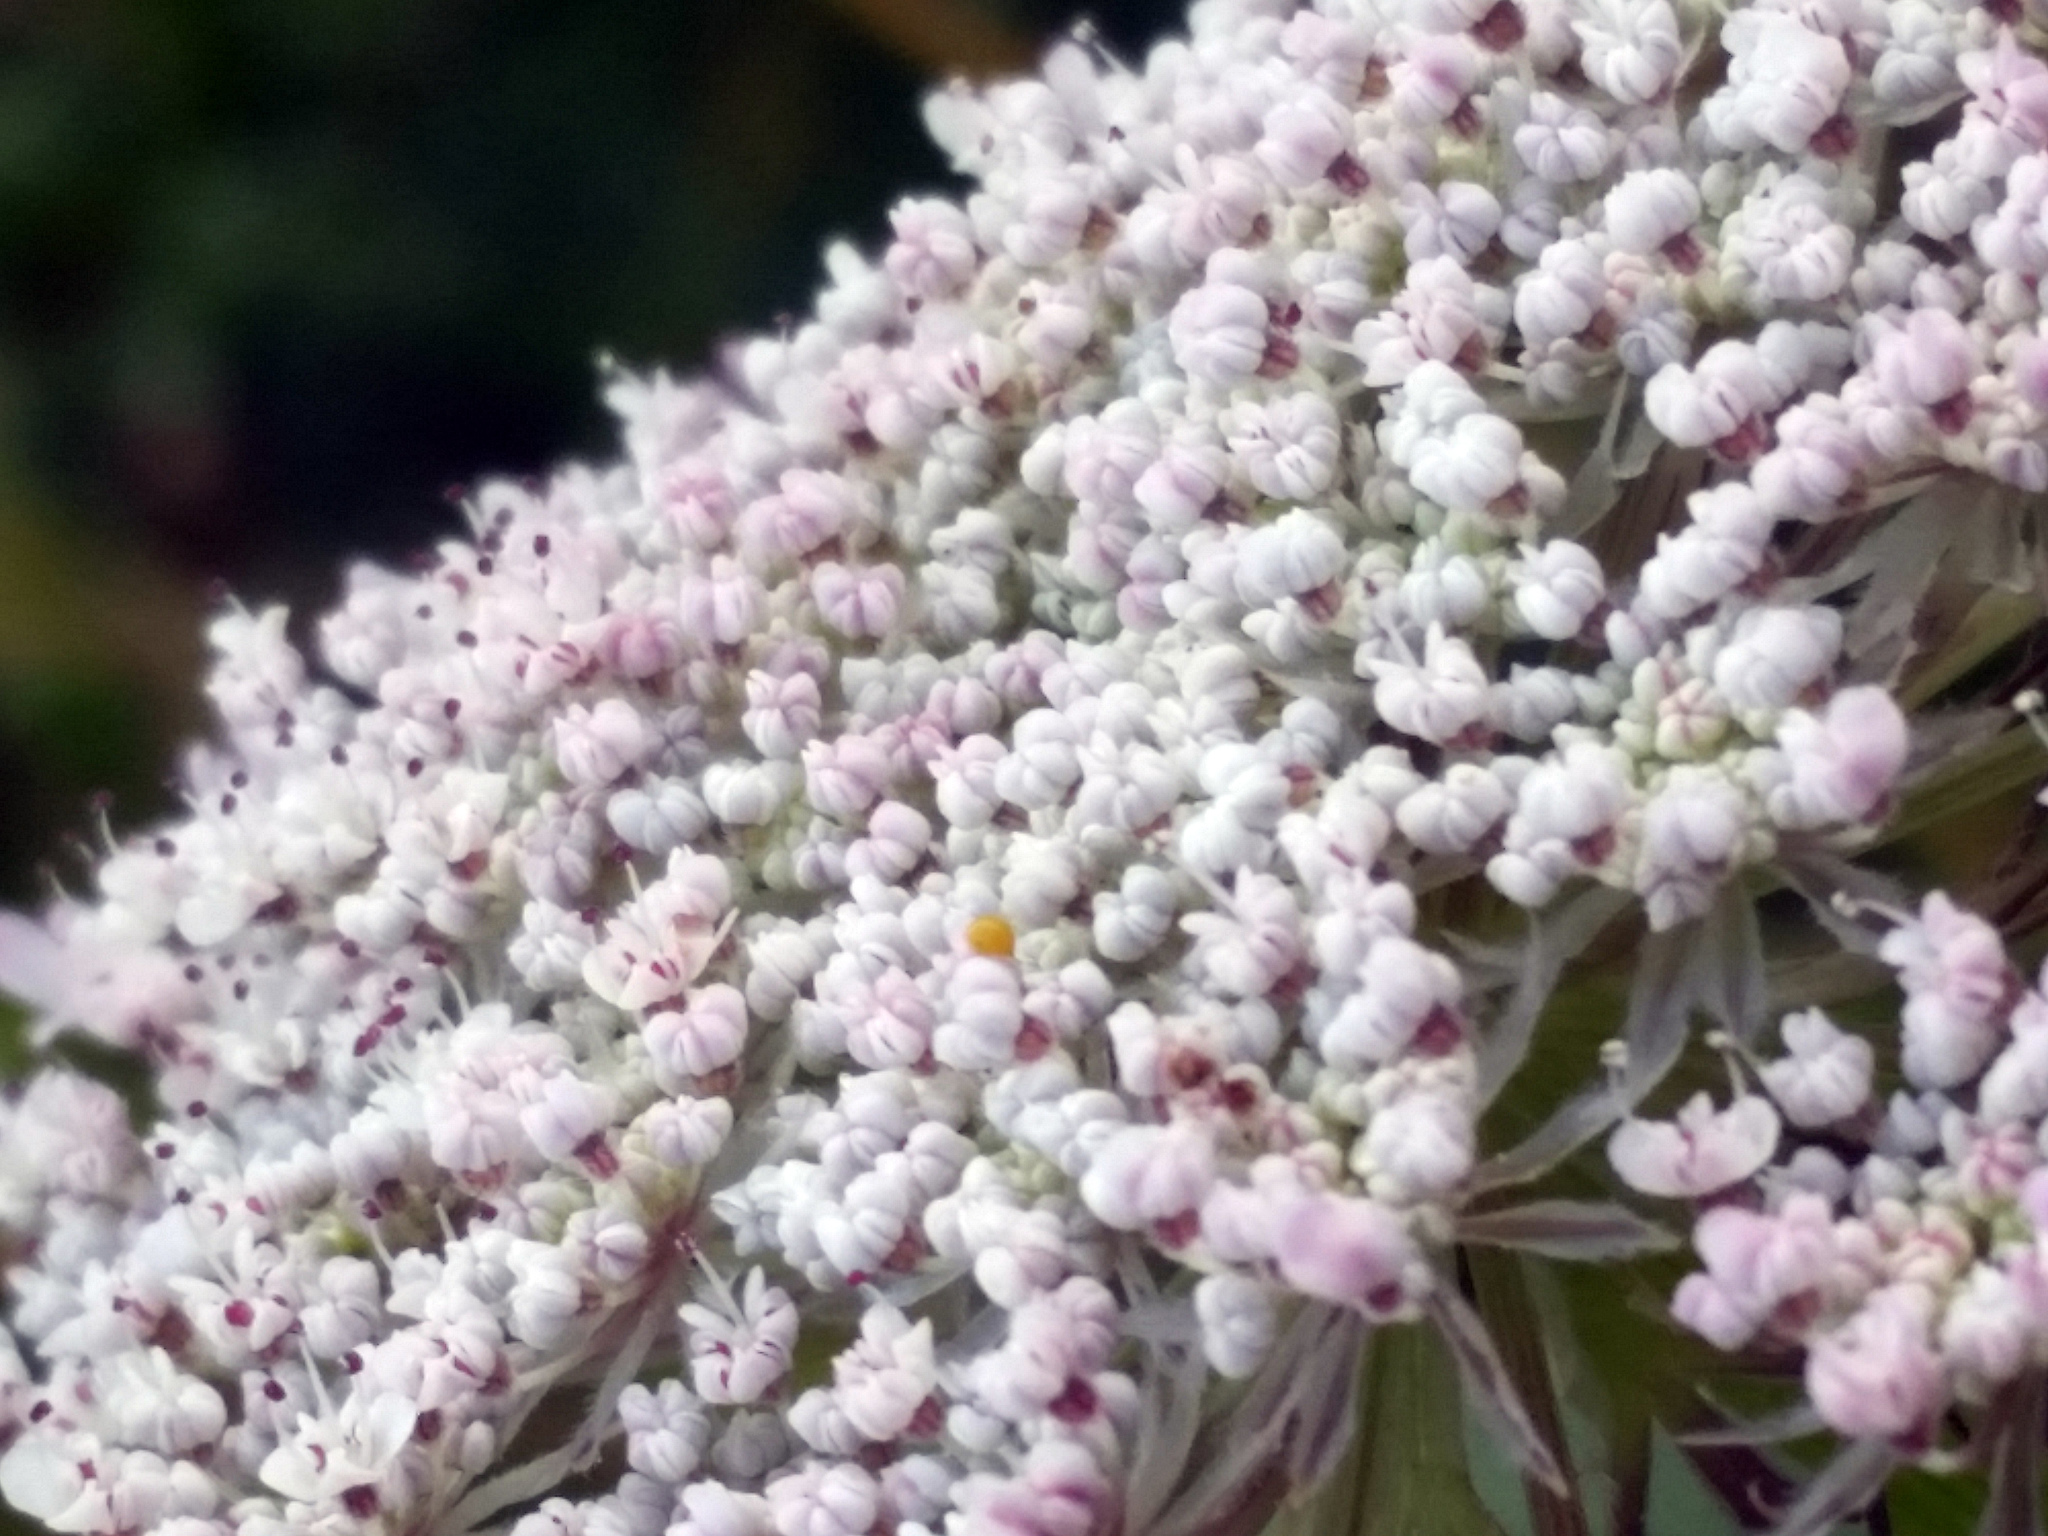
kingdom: Plantae
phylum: Tracheophyta
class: Magnoliopsida
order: Apiales
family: Apiaceae
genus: Daucus
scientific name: Daucus carota
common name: Wild carrot
